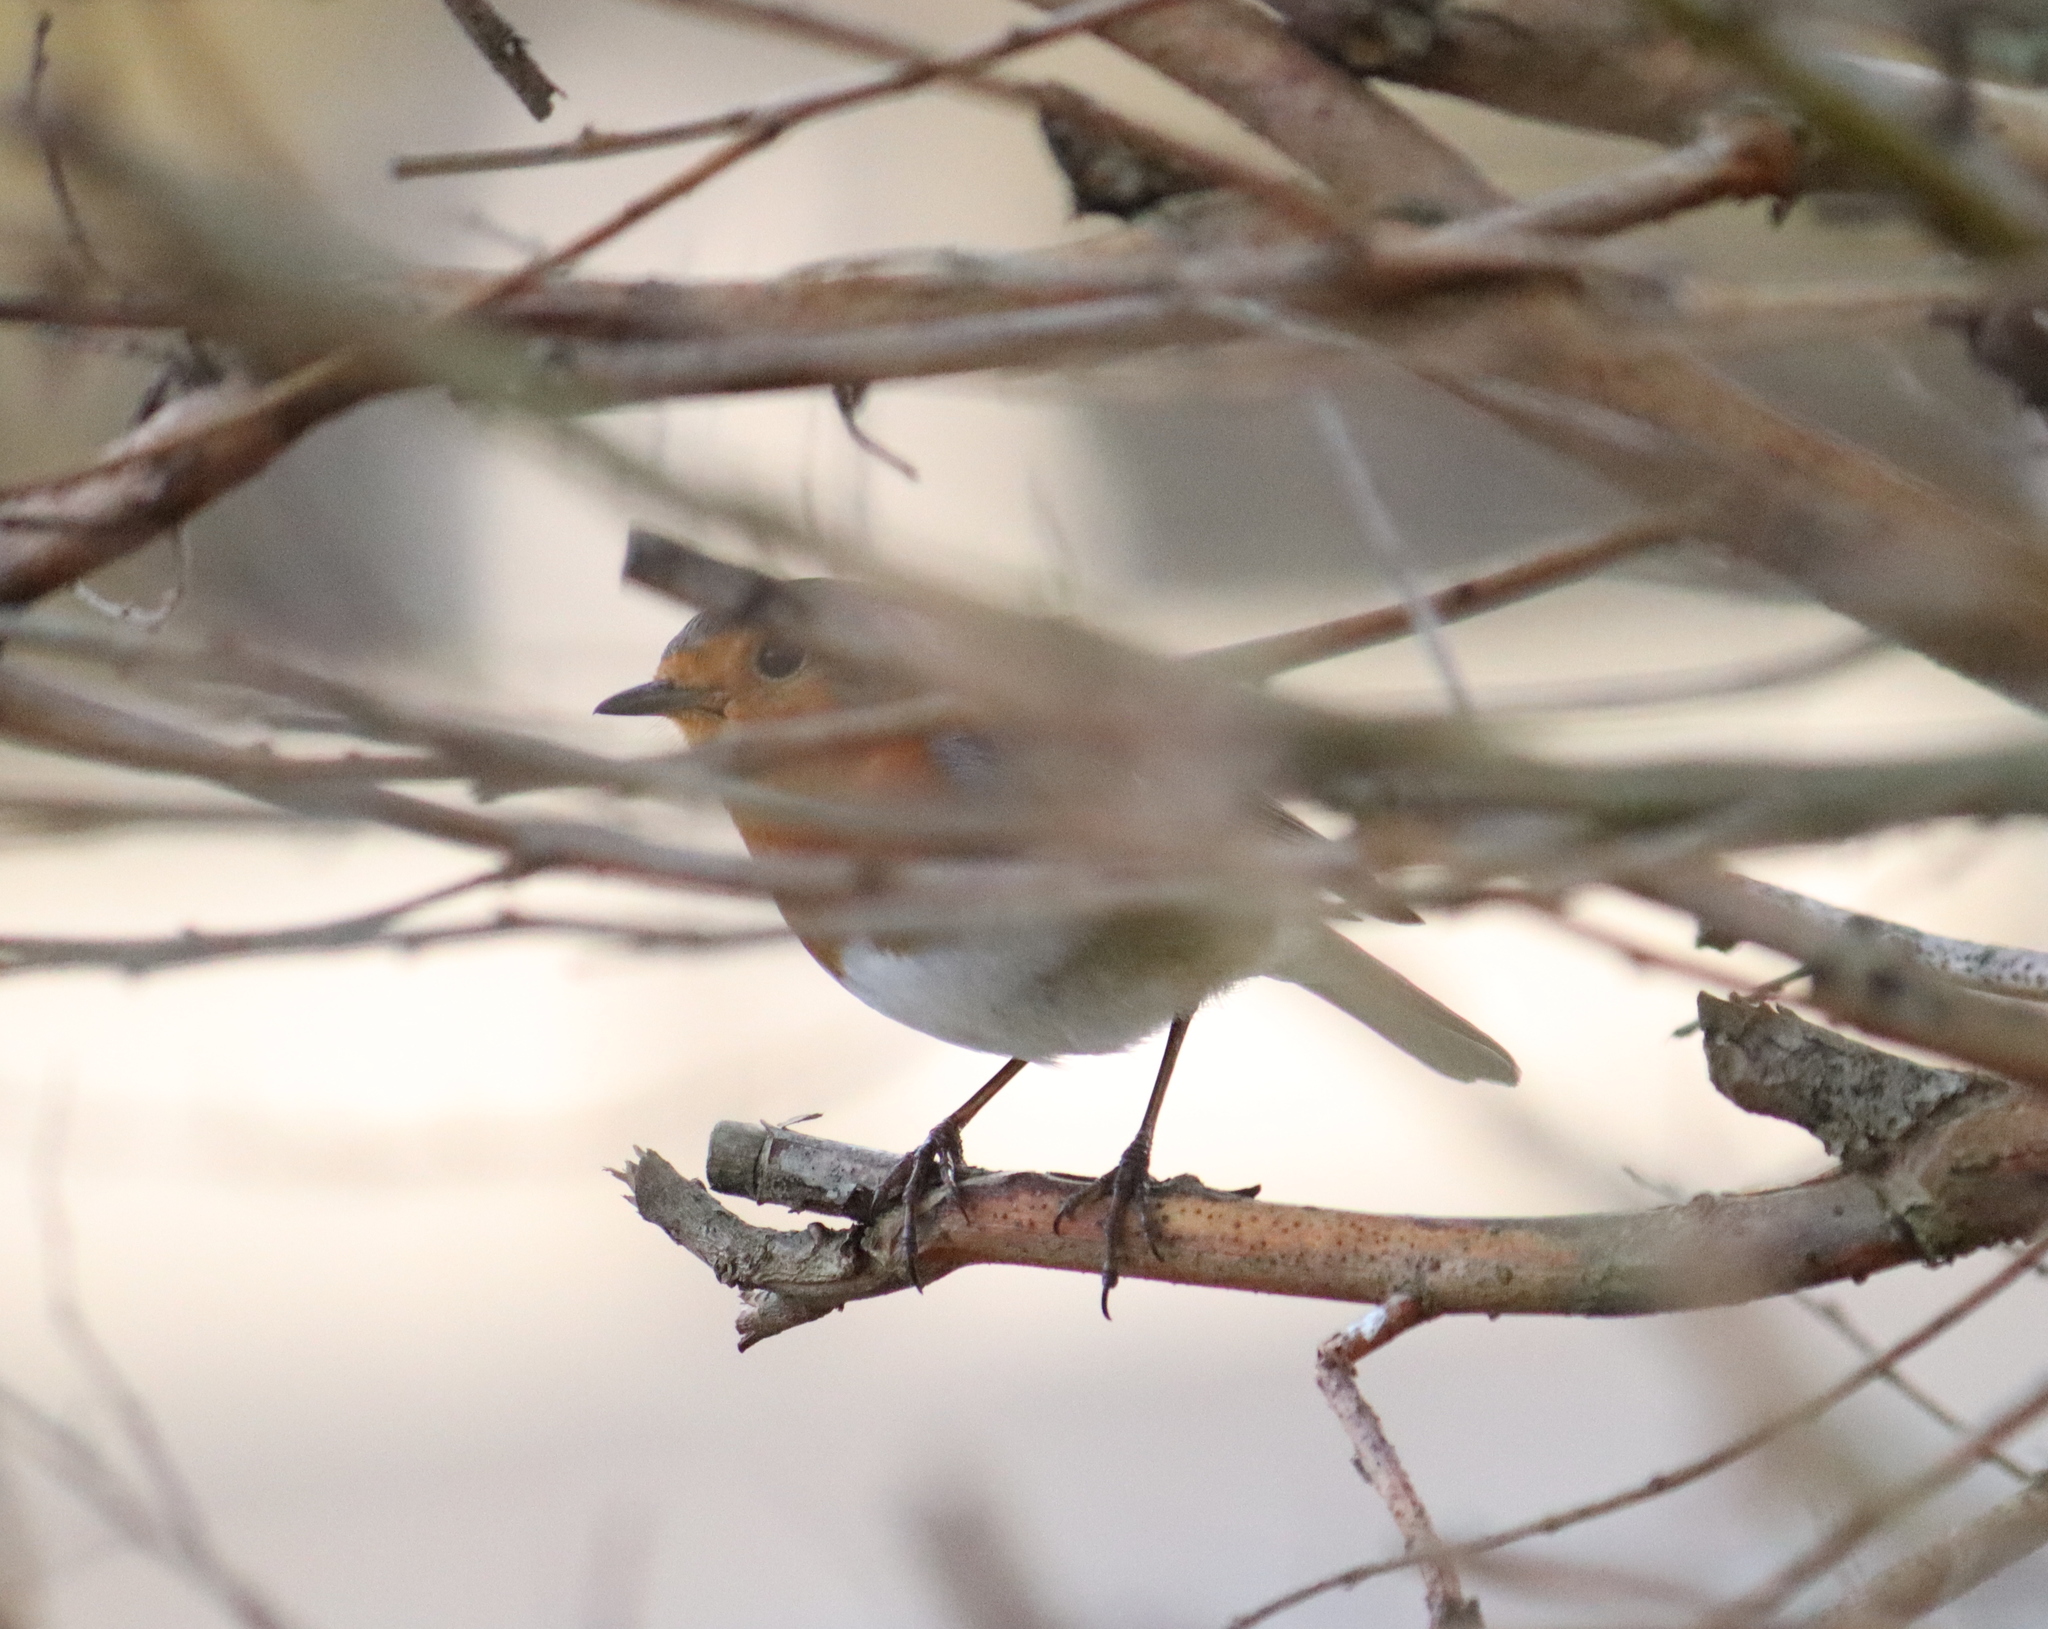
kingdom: Animalia
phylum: Chordata
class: Aves
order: Passeriformes
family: Muscicapidae
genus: Erithacus
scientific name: Erithacus rubecula
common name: European robin
